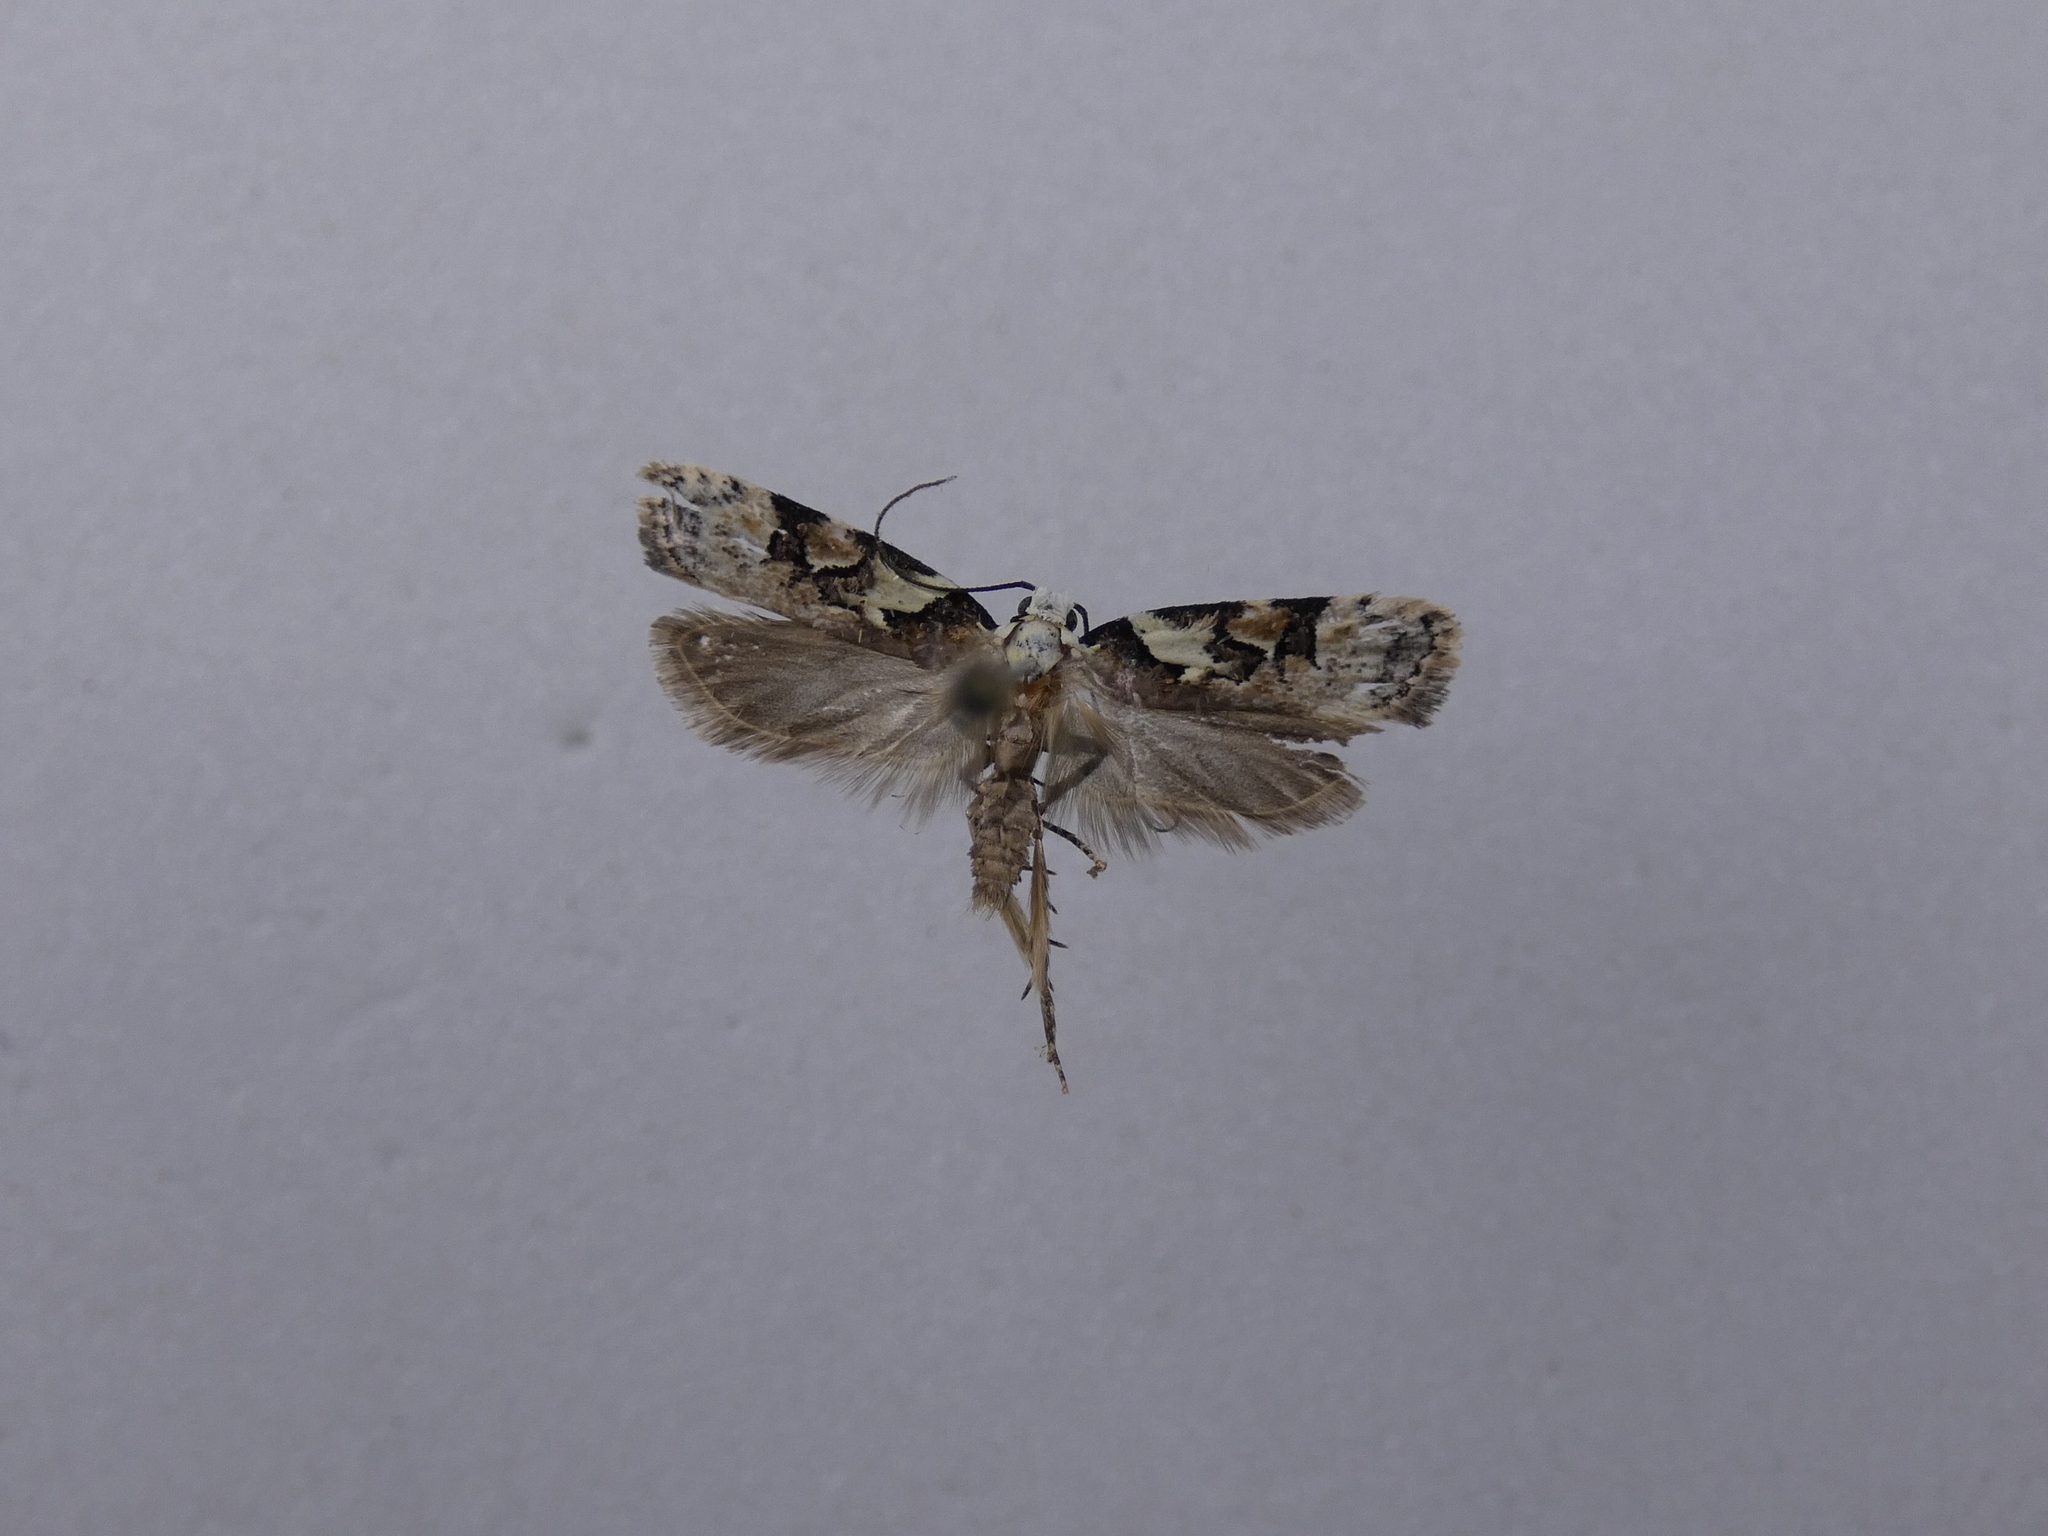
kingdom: Animalia
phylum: Arthropoda
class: Insecta
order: Lepidoptera
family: Oecophoridae
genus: Izatha
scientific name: Izatha epiphanes
